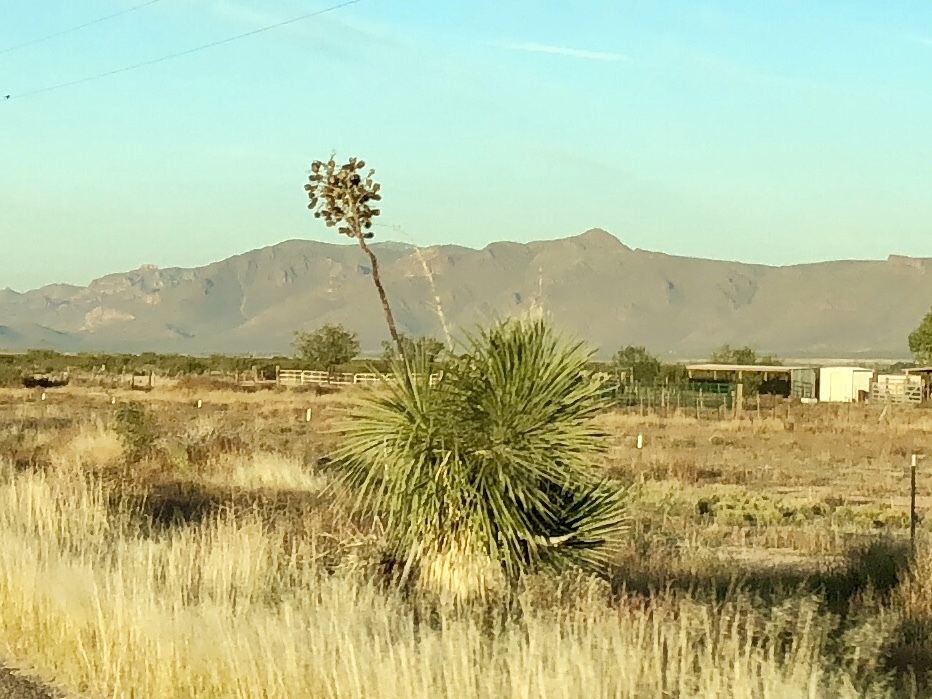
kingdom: Plantae
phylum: Tracheophyta
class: Liliopsida
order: Asparagales
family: Asparagaceae
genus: Yucca
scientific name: Yucca elata
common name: Palmella
